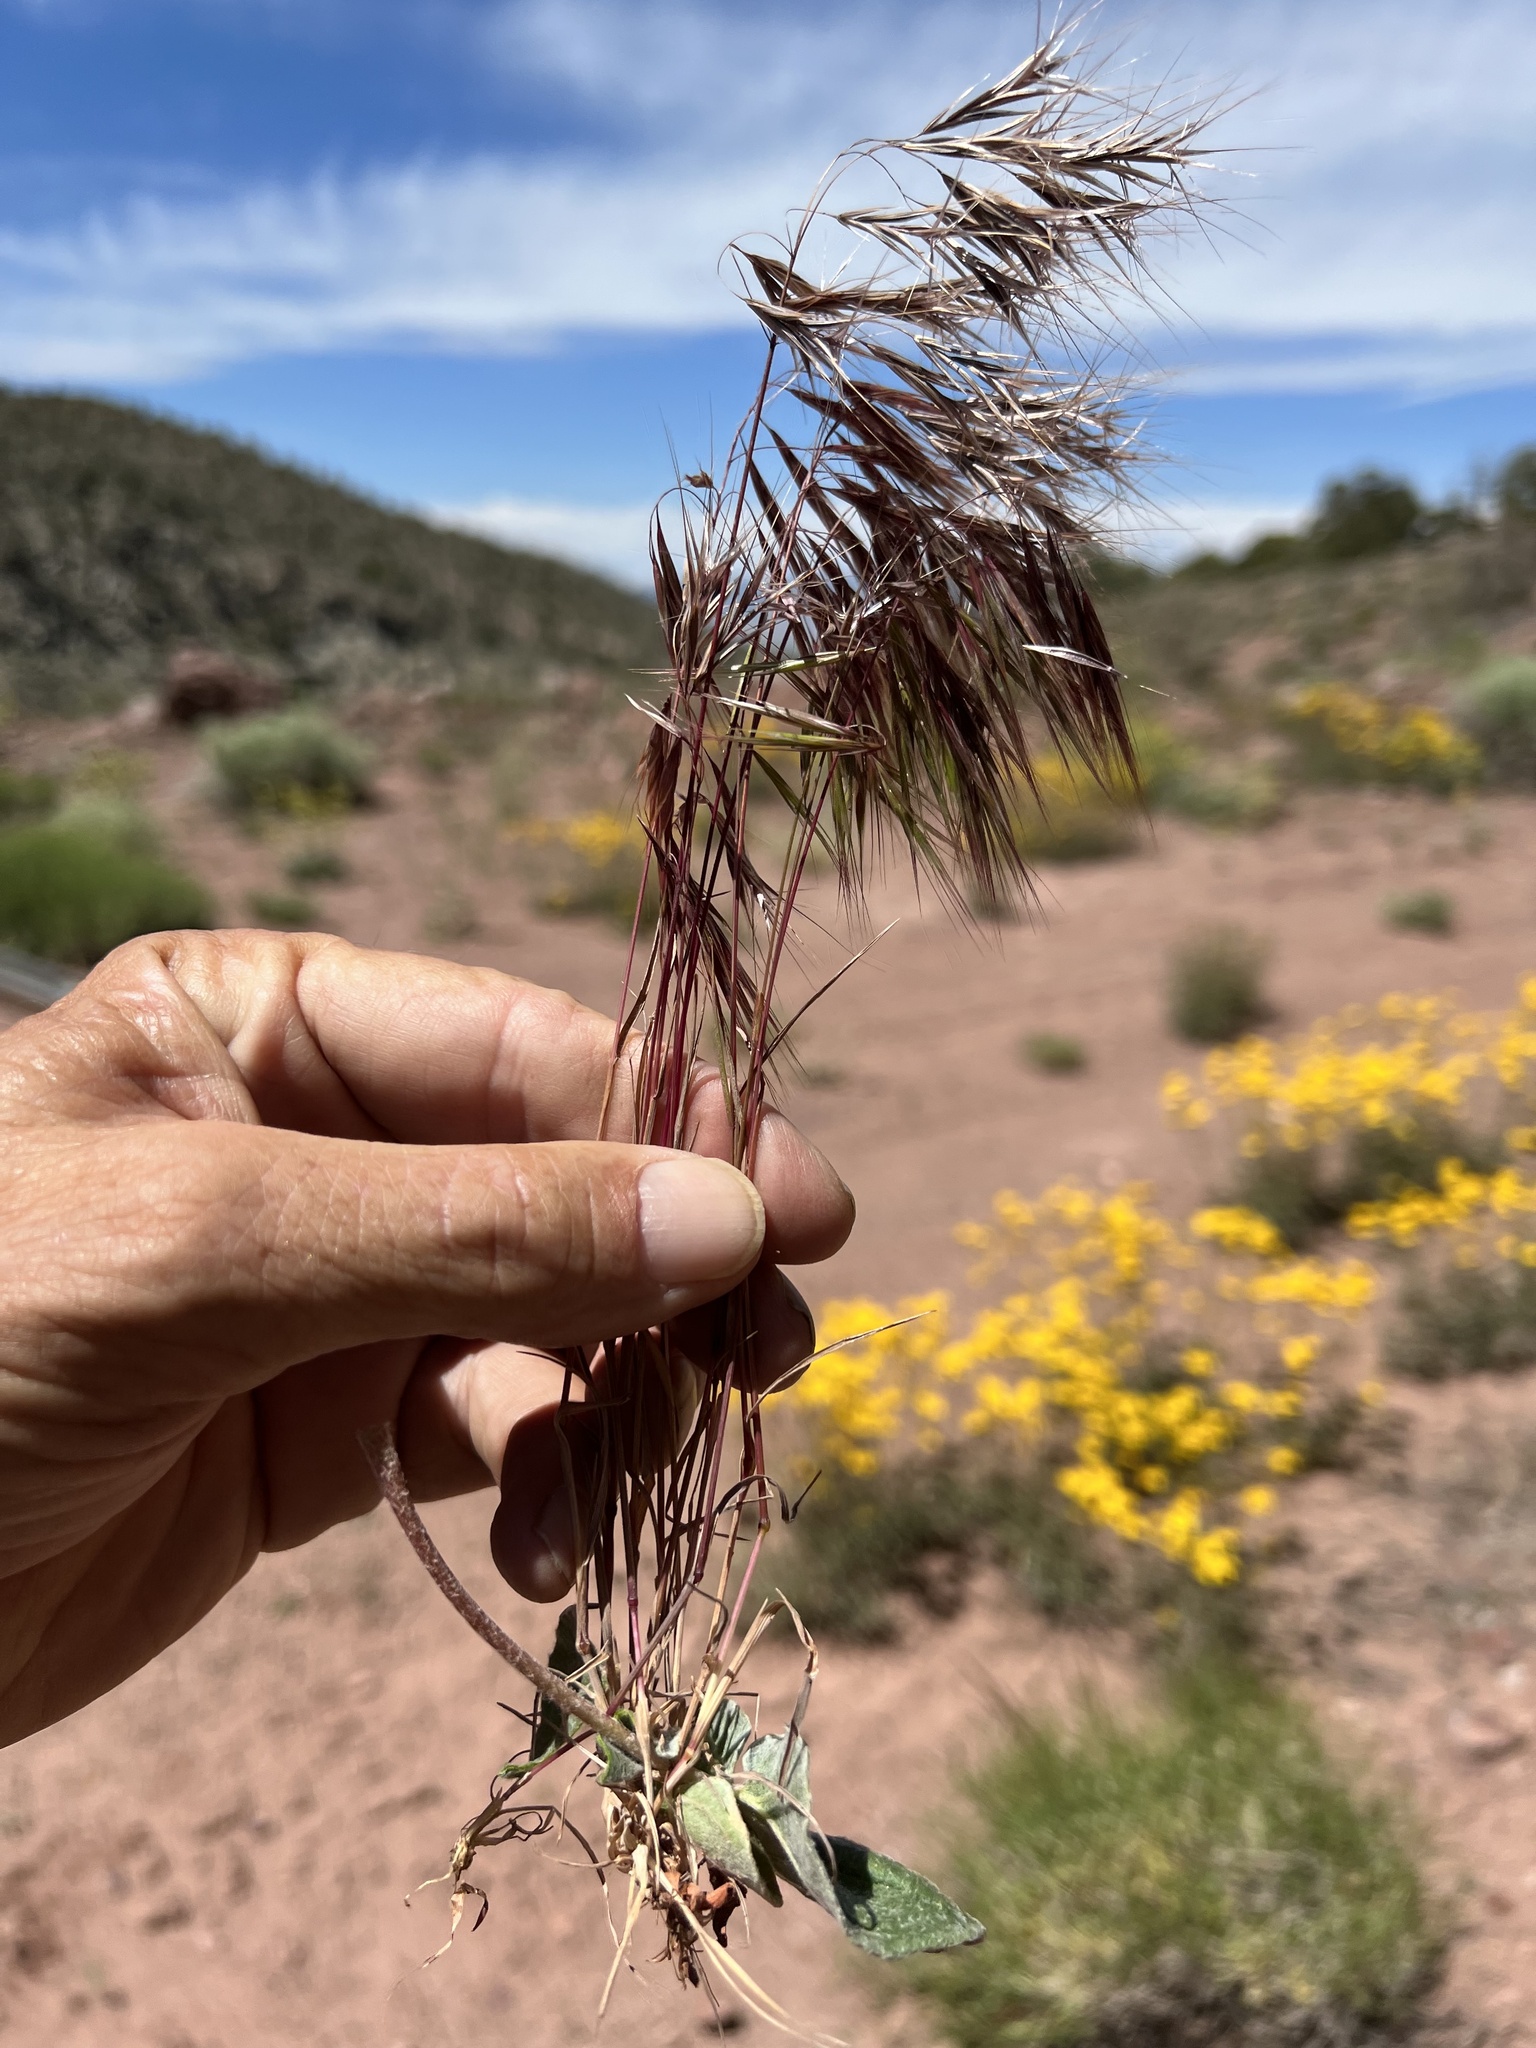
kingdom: Plantae
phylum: Tracheophyta
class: Liliopsida
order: Poales
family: Poaceae
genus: Bromus
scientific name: Bromus tectorum
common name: Cheatgrass
